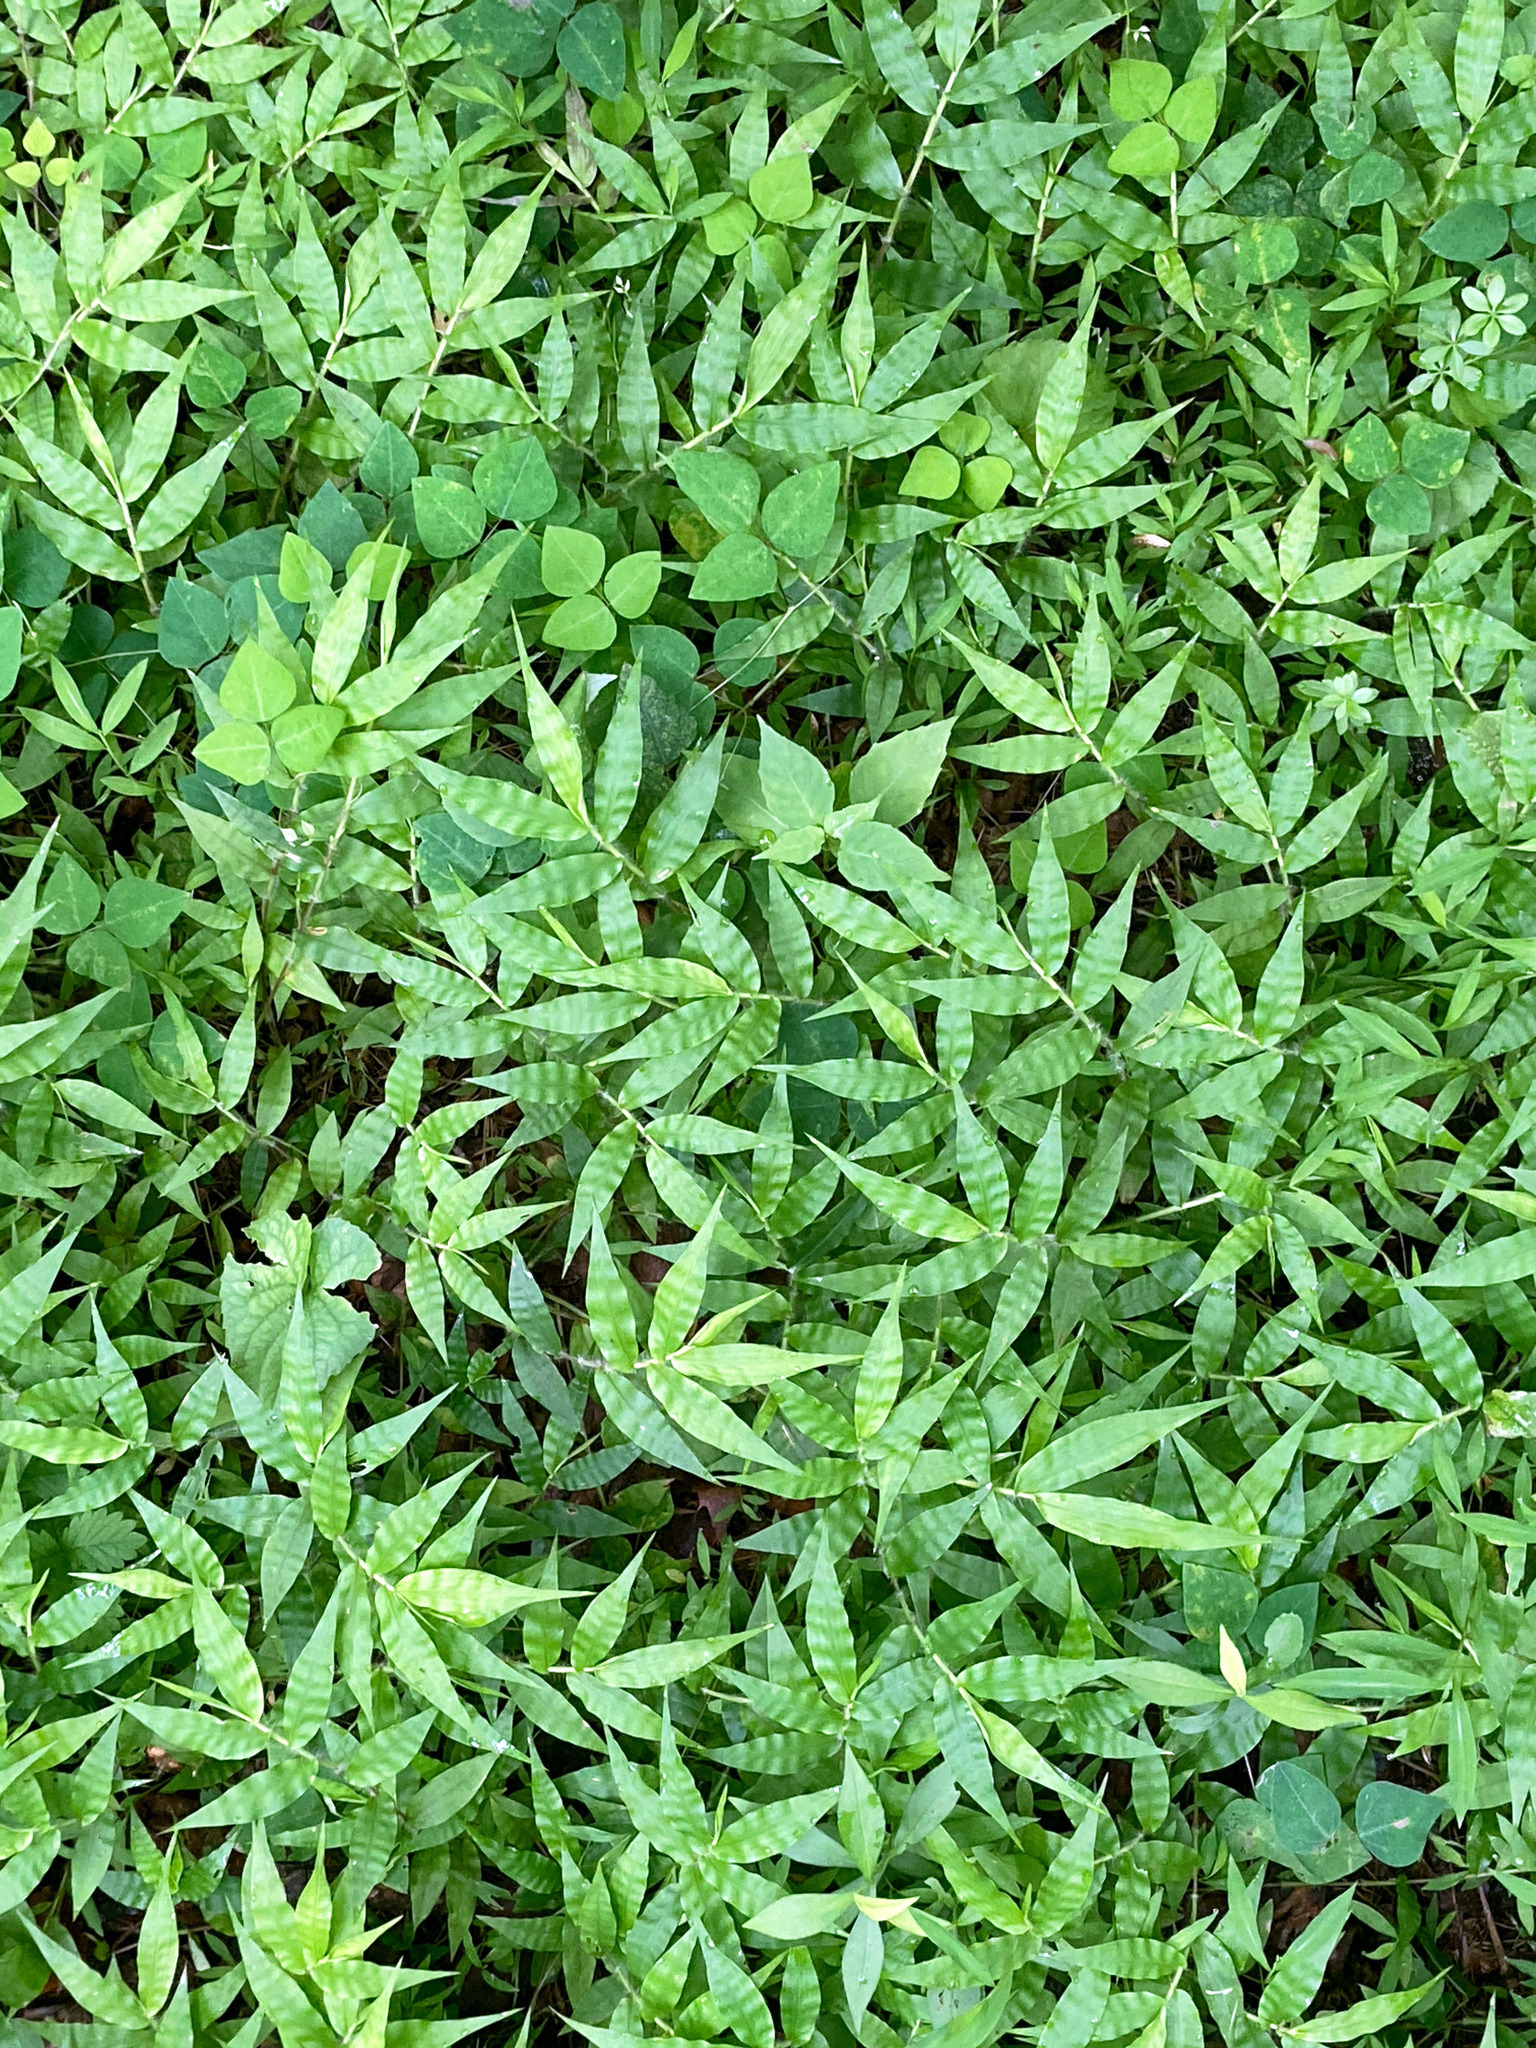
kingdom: Plantae
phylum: Tracheophyta
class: Liliopsida
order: Poales
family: Poaceae
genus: Oplismenus
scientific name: Oplismenus undulatifolius
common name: Wavyleaf basketgrass
